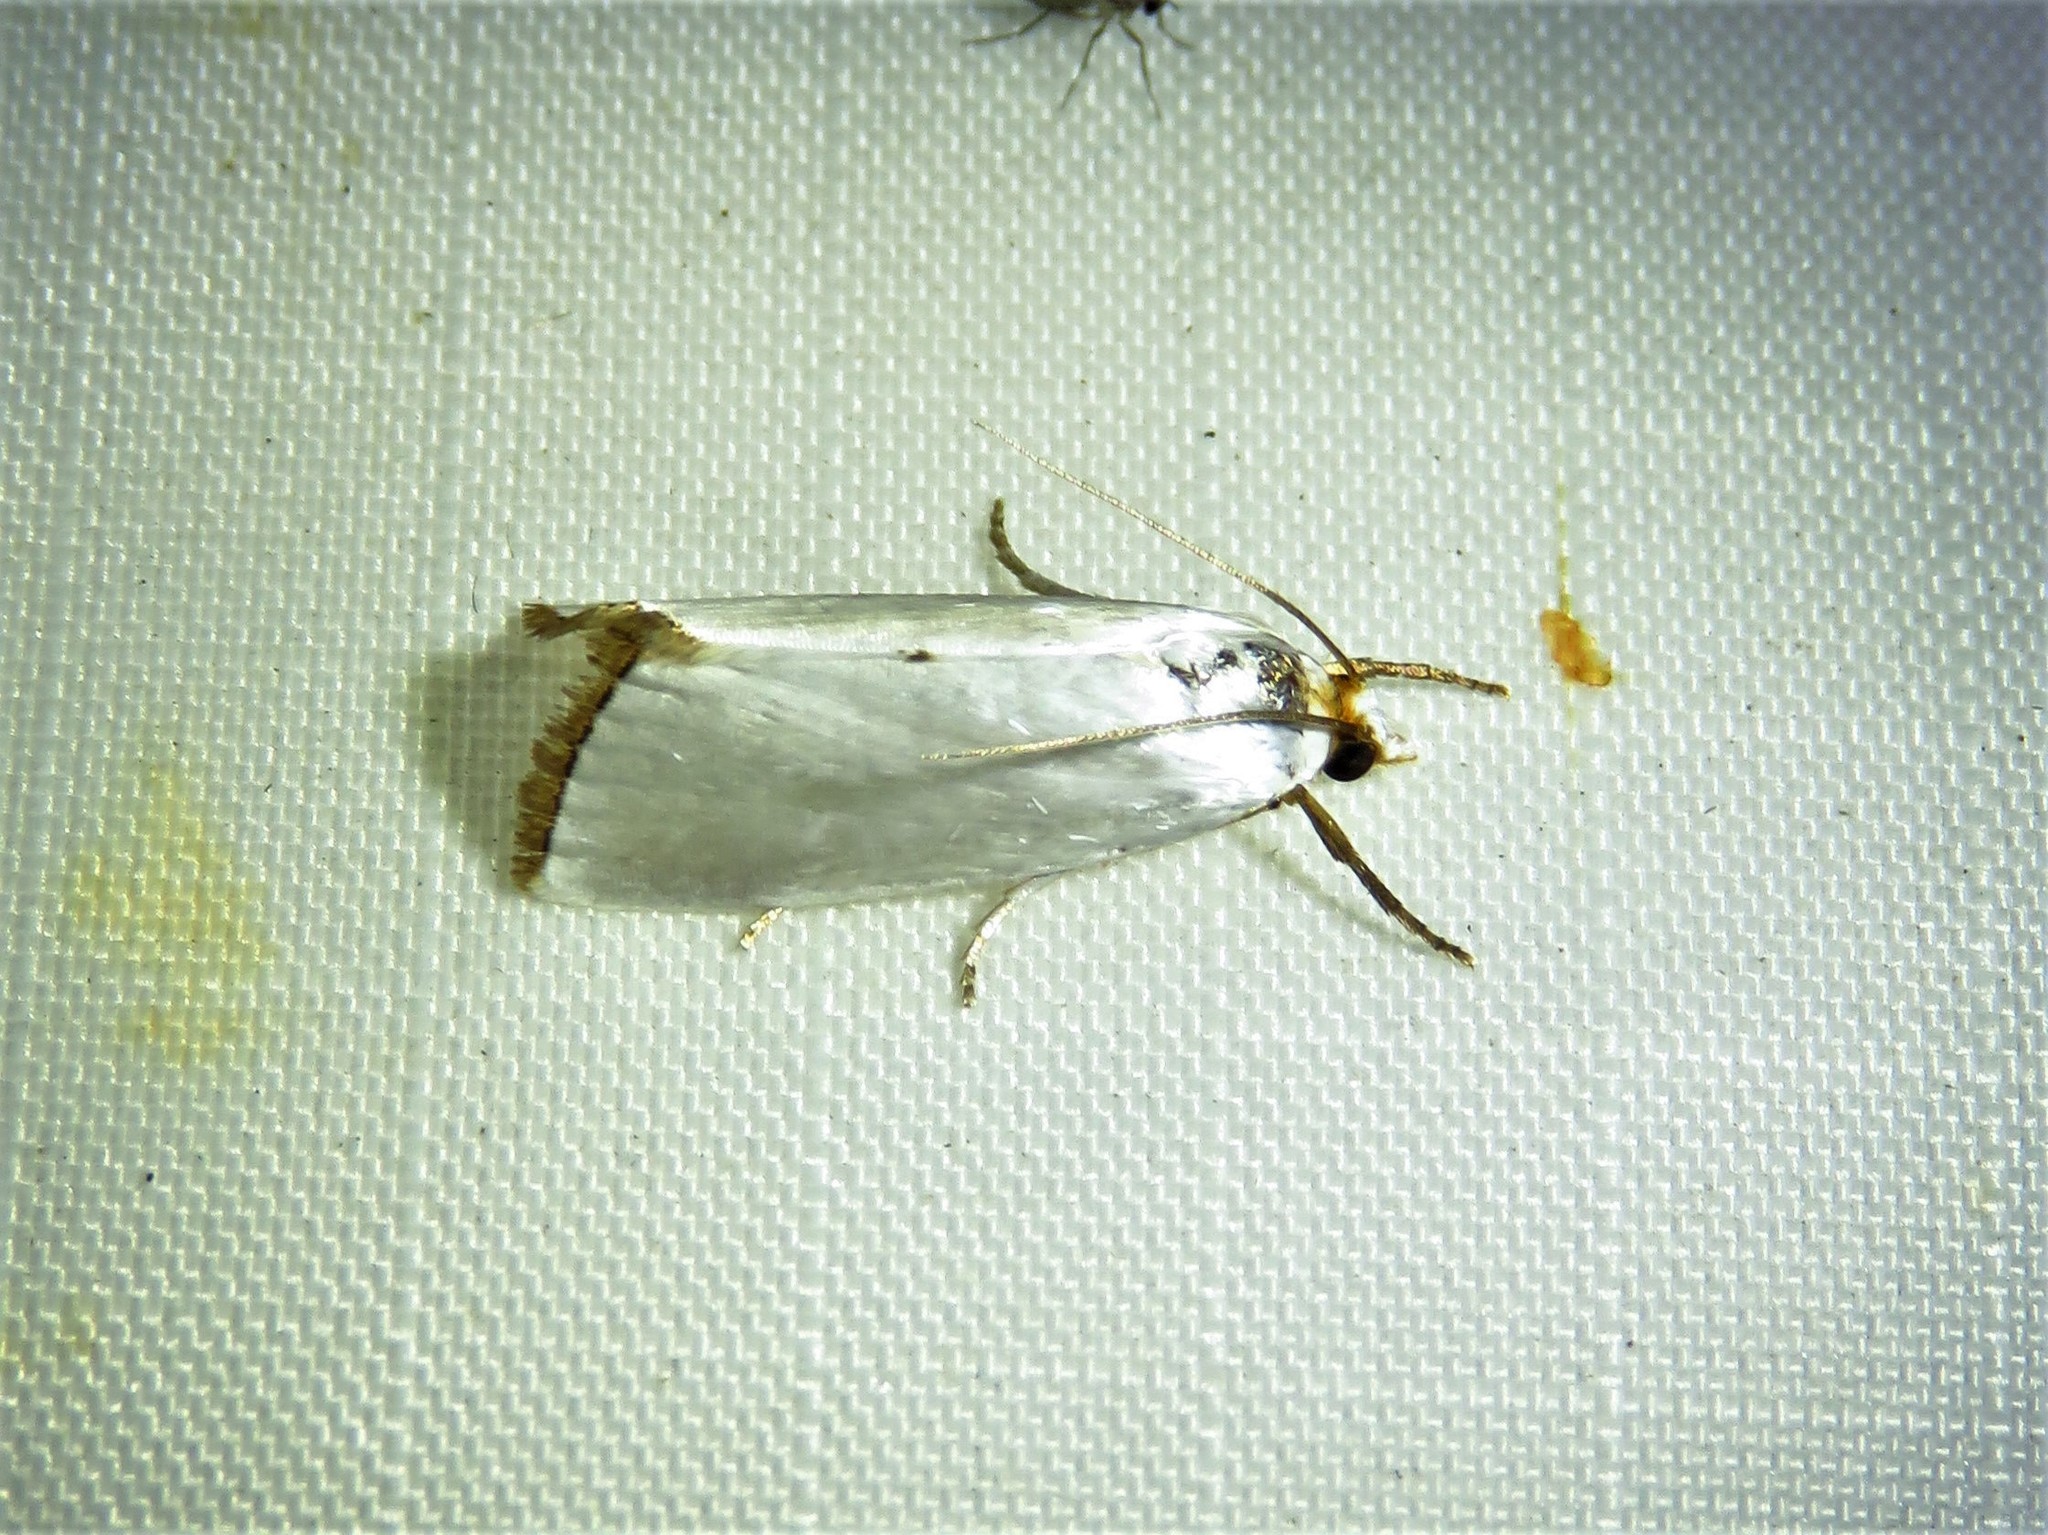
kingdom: Animalia
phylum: Arthropoda
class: Insecta
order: Lepidoptera
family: Crambidae
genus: Argyria
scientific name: Argyria nivalis
